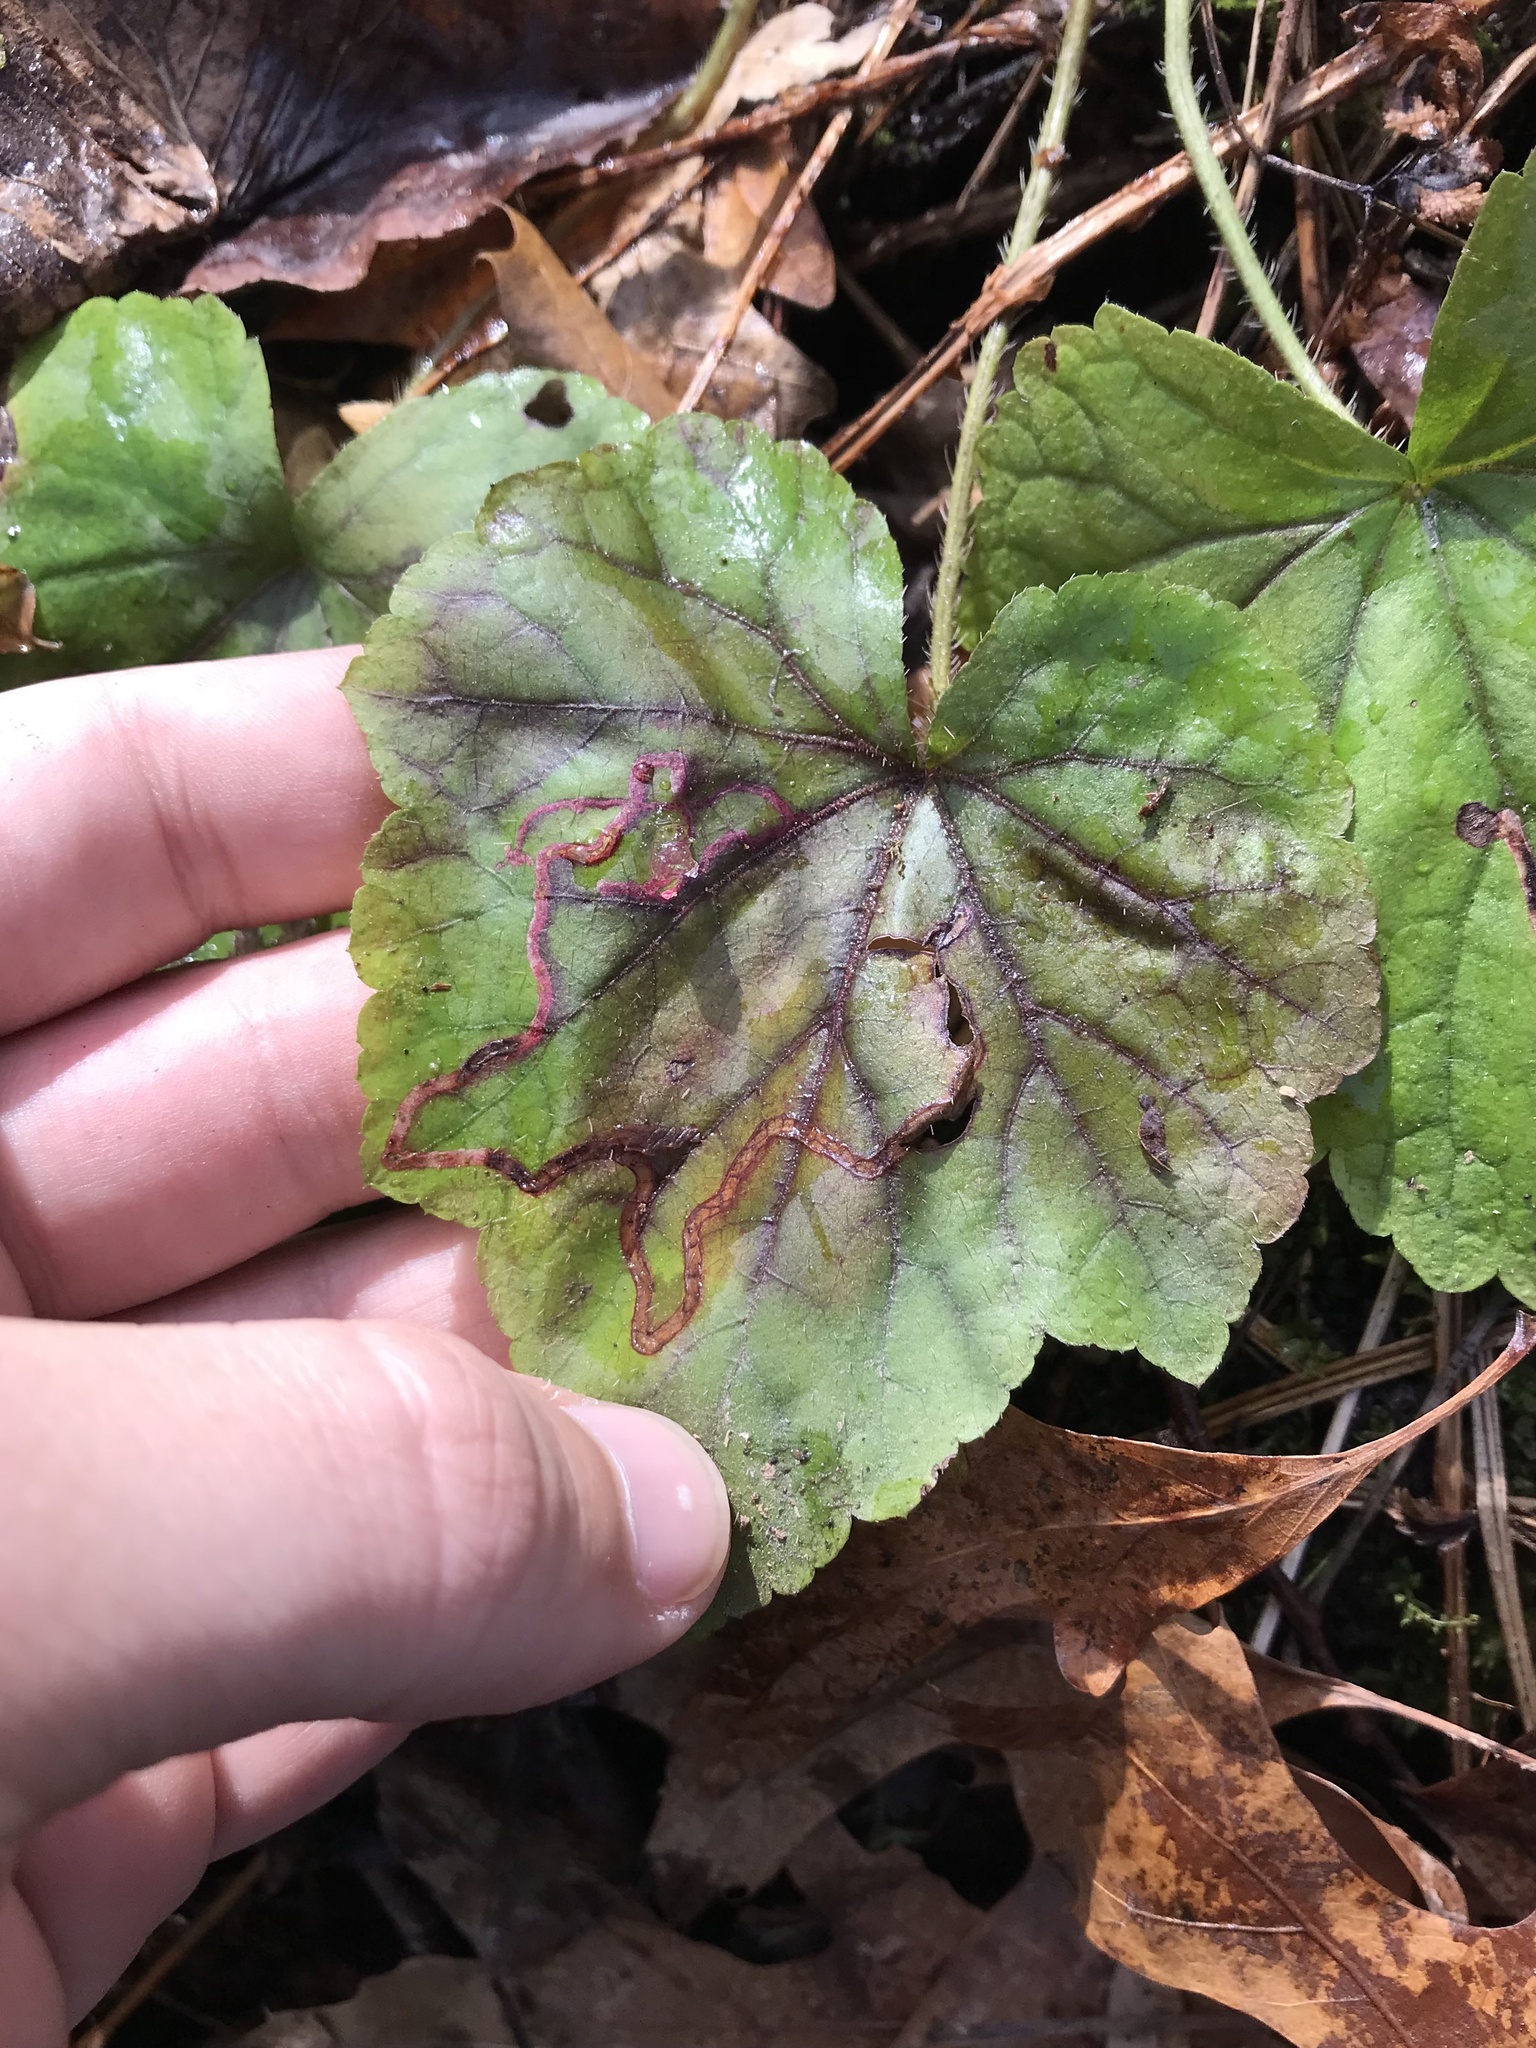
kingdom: Animalia
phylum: Arthropoda
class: Insecta
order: Diptera
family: Agromyzidae
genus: Phytomyza
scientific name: Phytomyza mitellae
